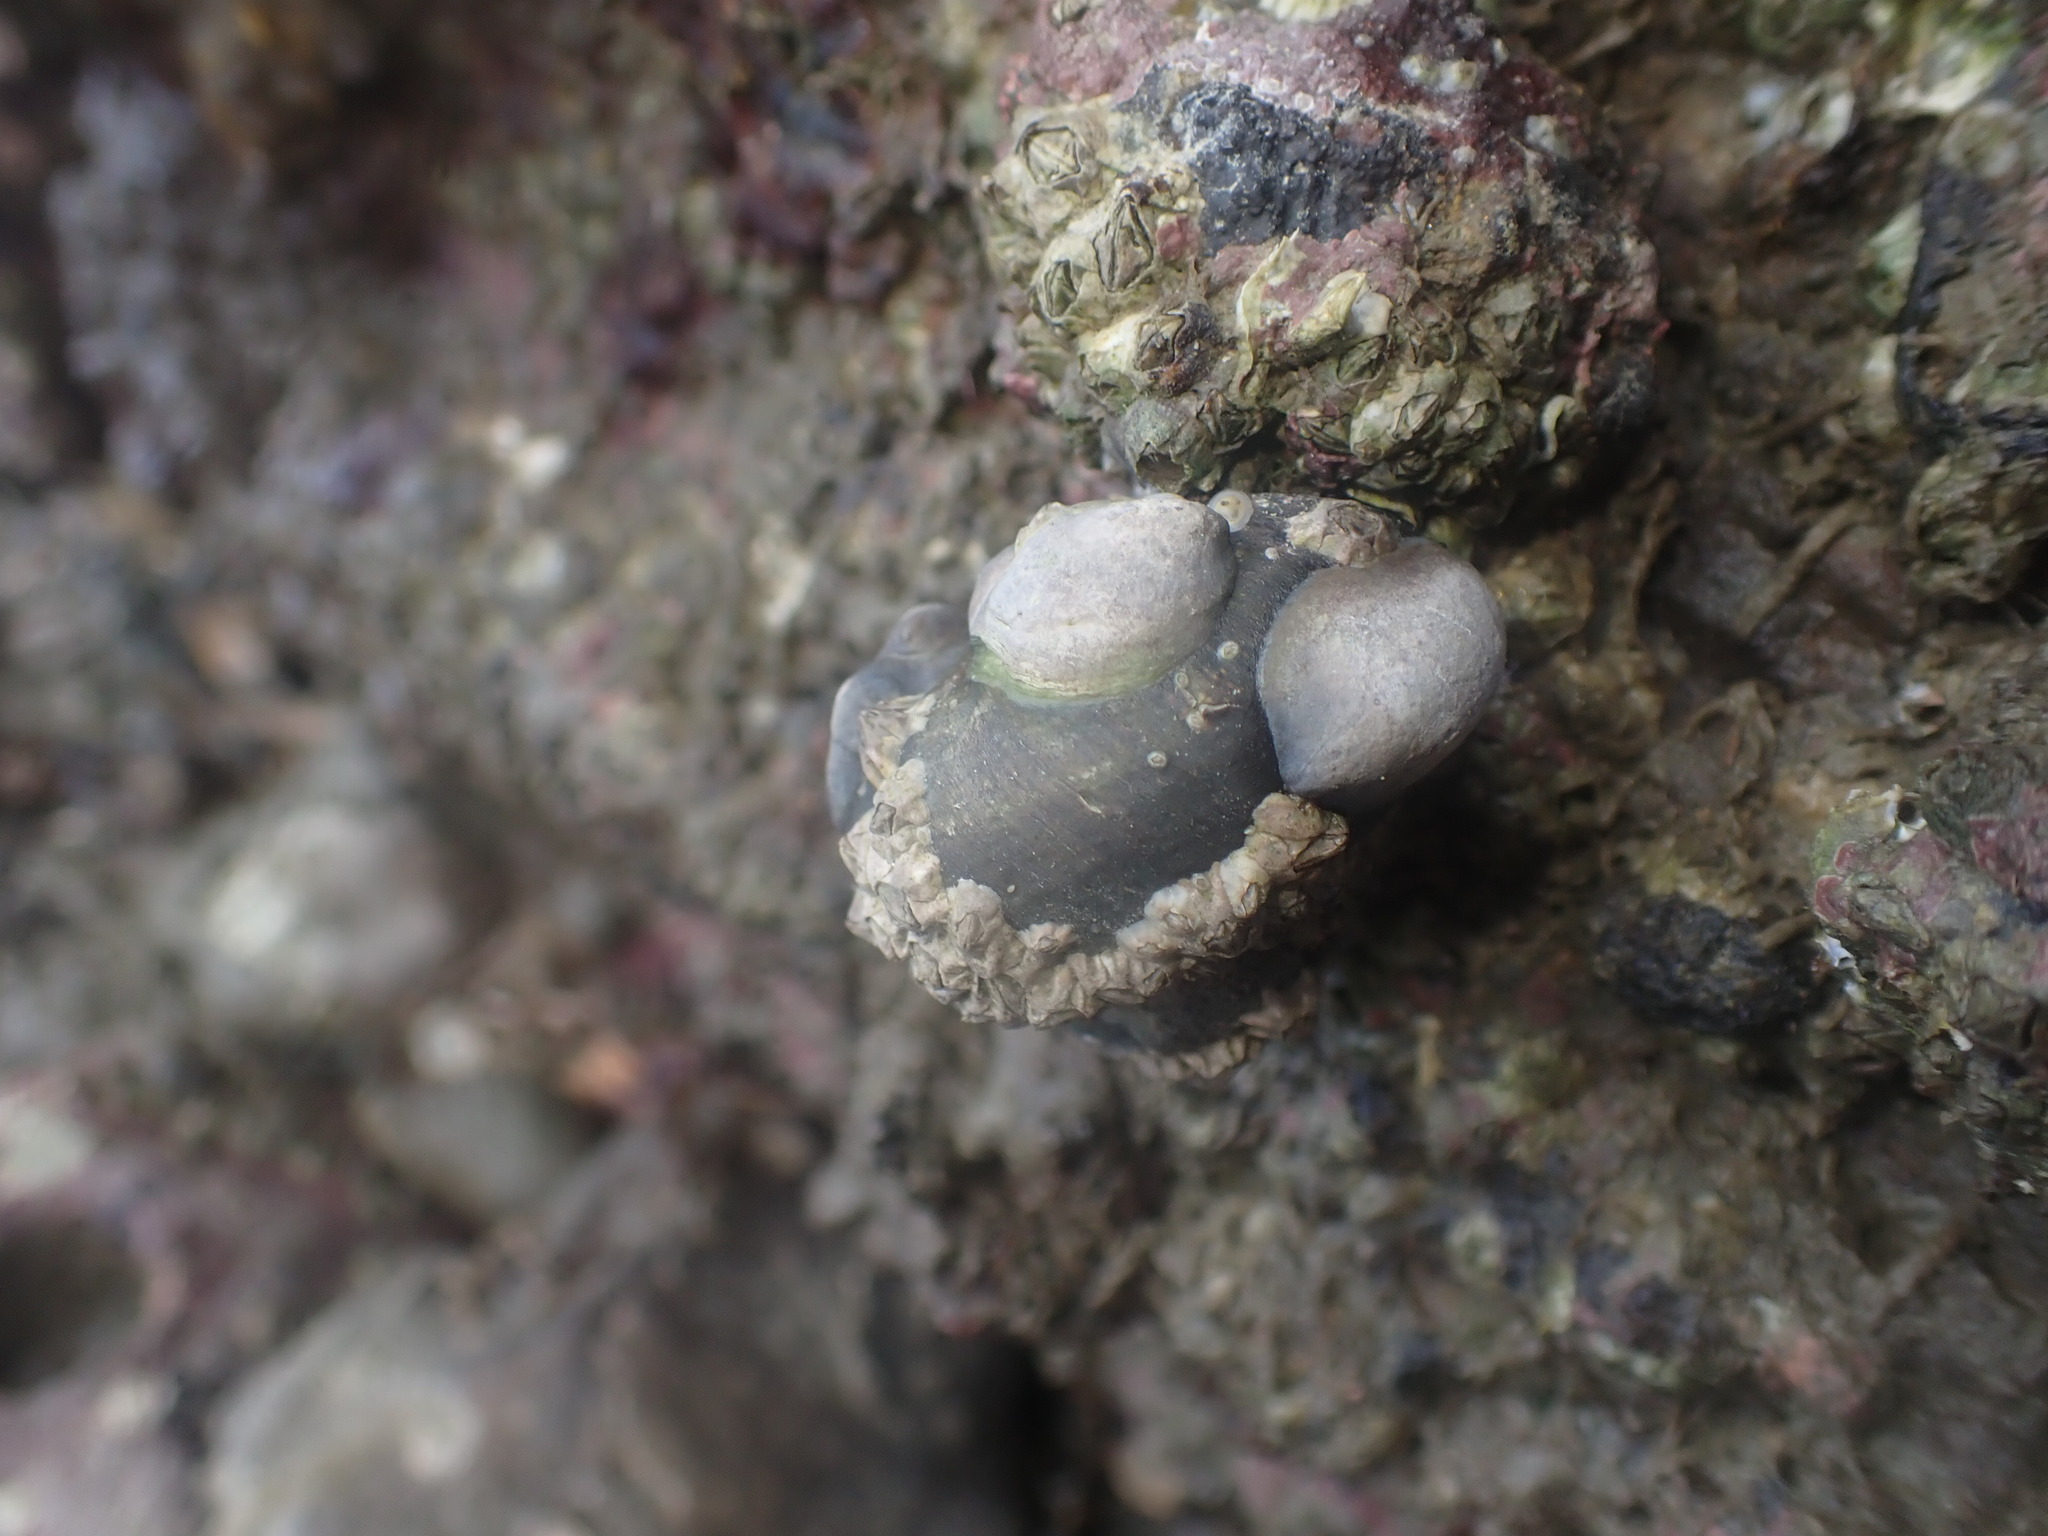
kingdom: Animalia
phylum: Mollusca
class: Gastropoda
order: Littorinimorpha
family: Calyptraeidae
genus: Maoricrypta
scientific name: Maoricrypta monoxyla
